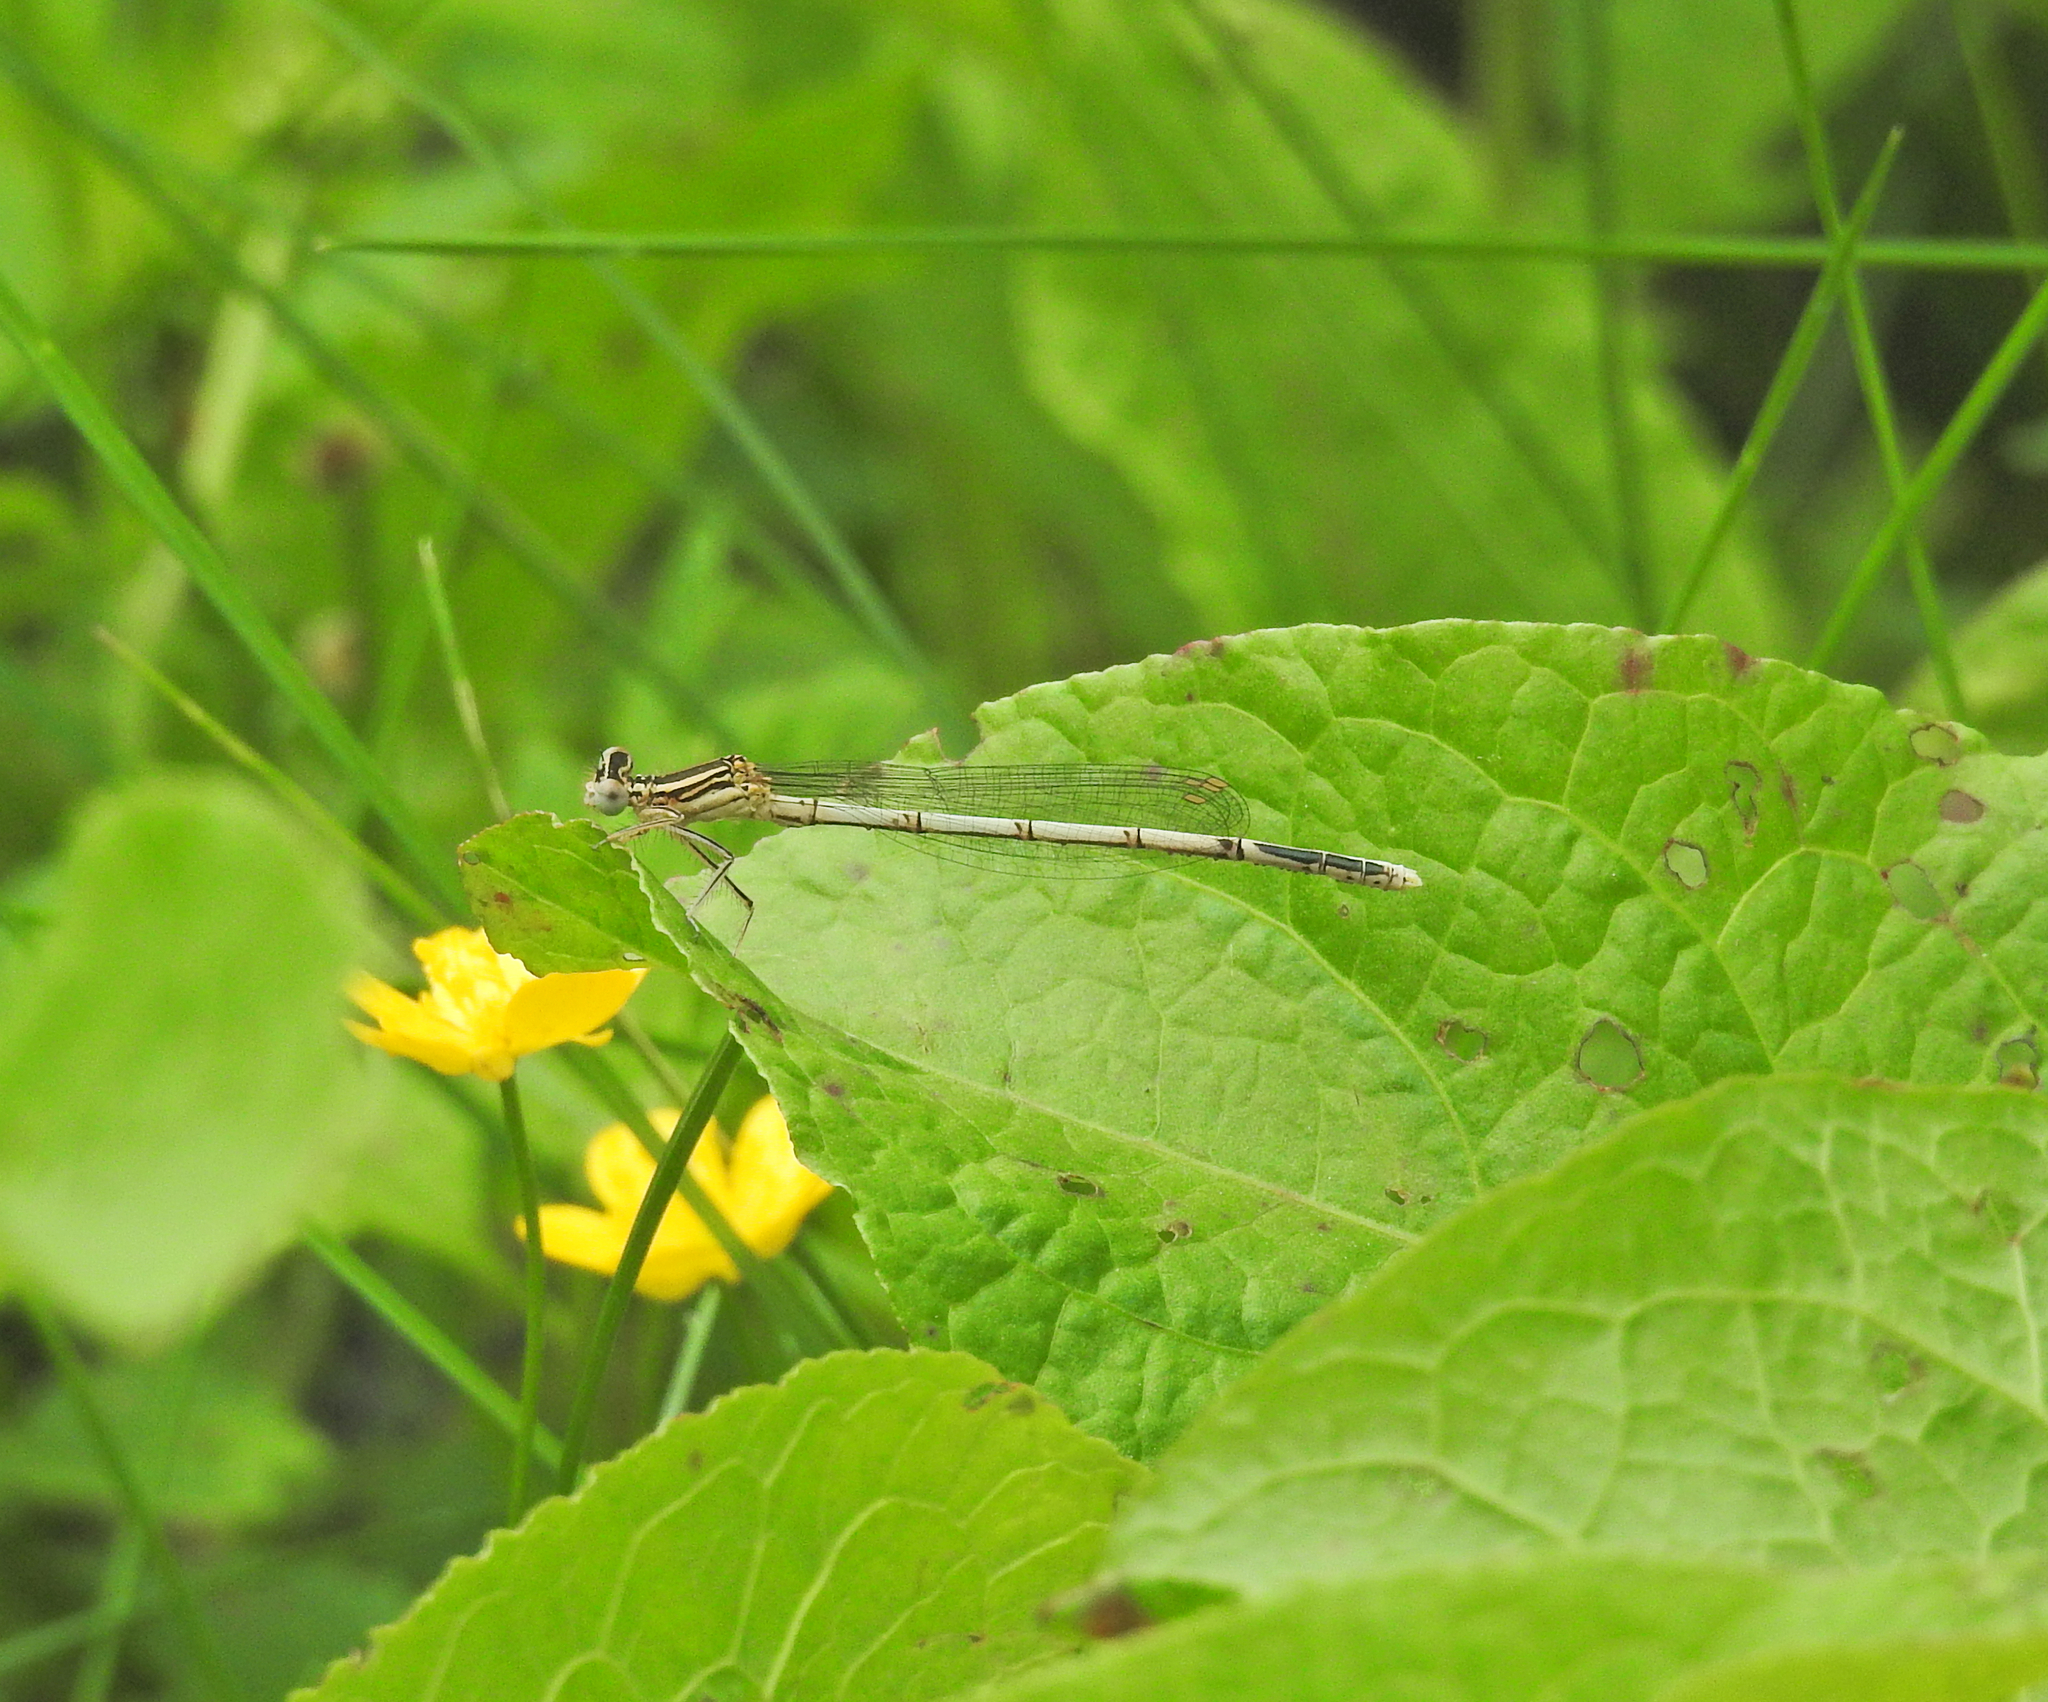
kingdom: Animalia
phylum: Arthropoda
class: Insecta
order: Odonata
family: Platycnemididae
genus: Platycnemis
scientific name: Platycnemis pennipes
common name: White-legged damselfly
